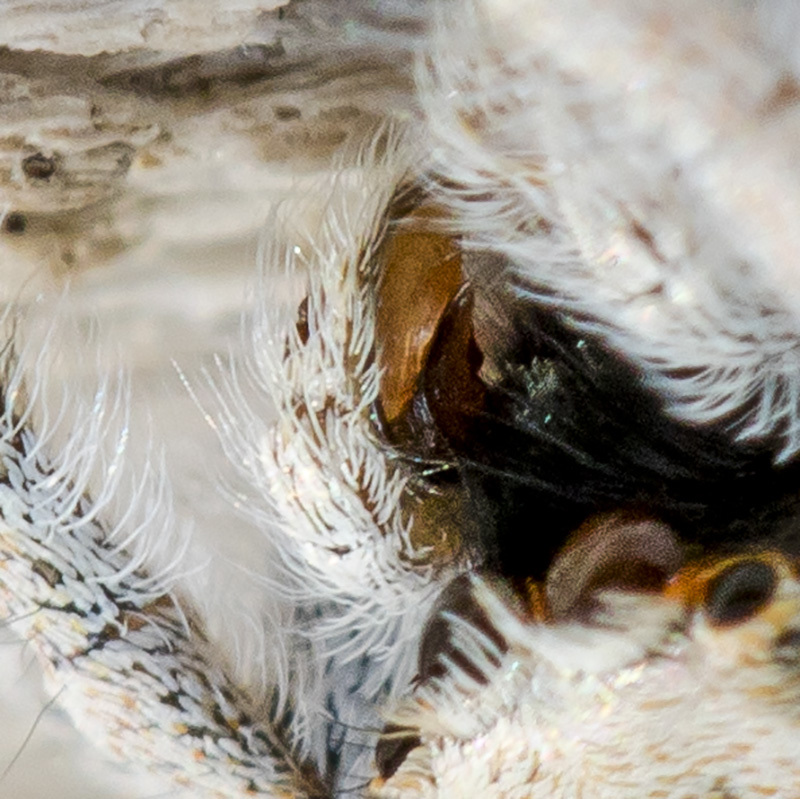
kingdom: Animalia
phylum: Arthropoda
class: Arachnida
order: Araneae
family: Salticidae
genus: Marusyllus
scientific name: Marusyllus aralicus
